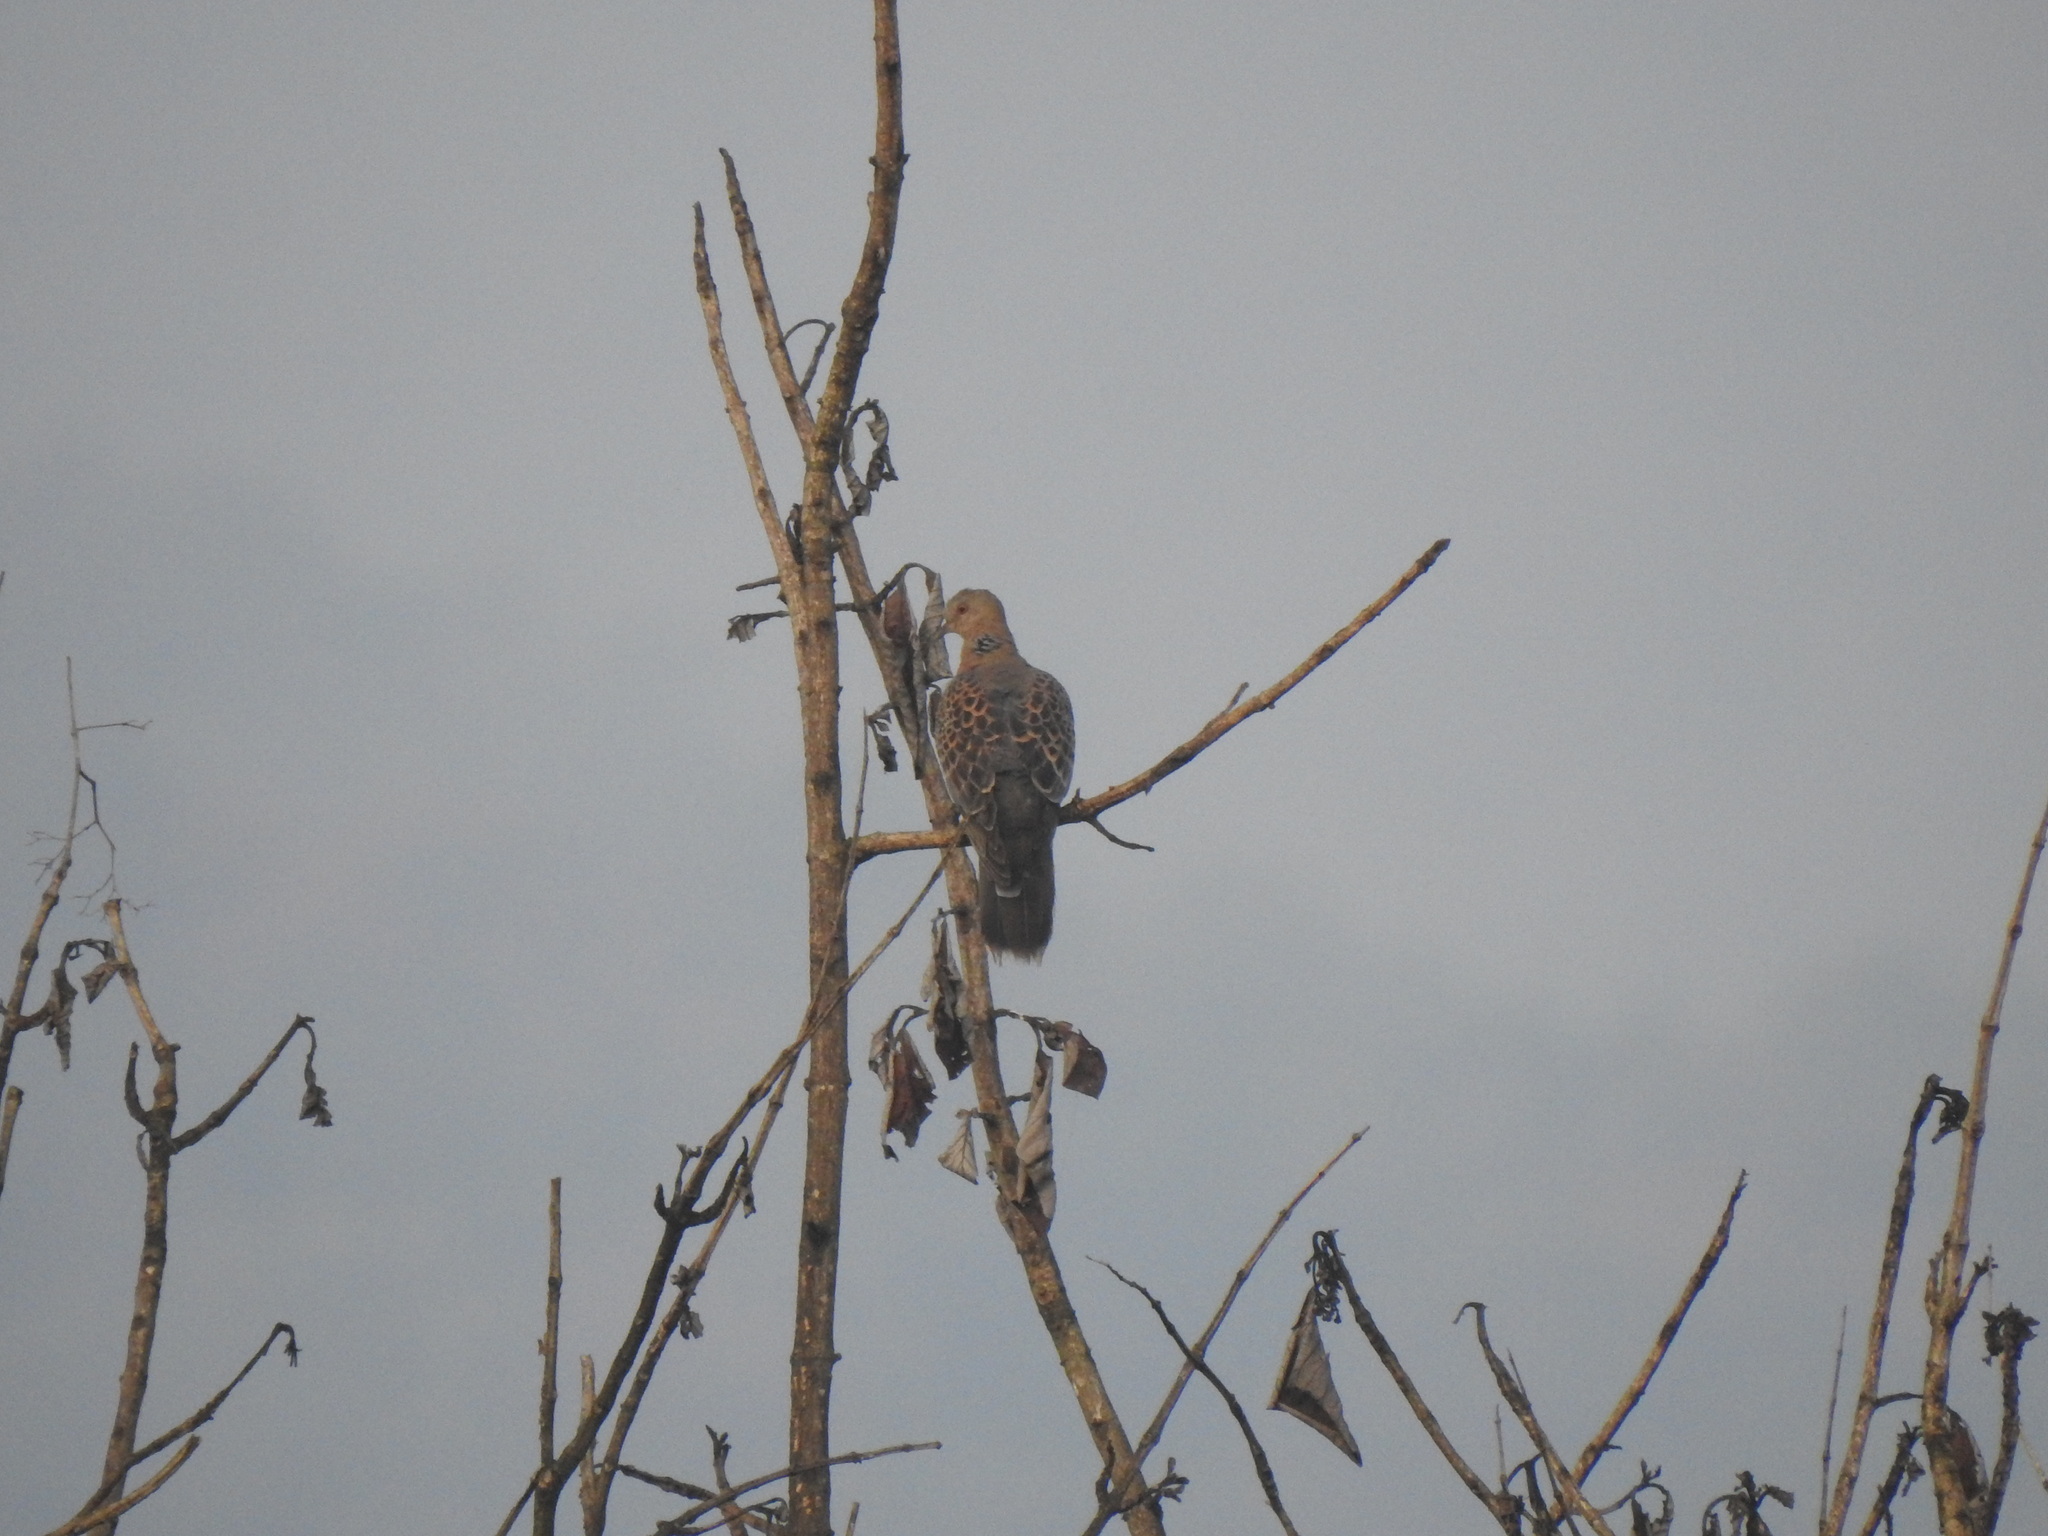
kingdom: Animalia
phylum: Chordata
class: Aves
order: Columbiformes
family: Columbidae
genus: Streptopelia
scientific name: Streptopelia orientalis
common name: Oriental turtle dove
